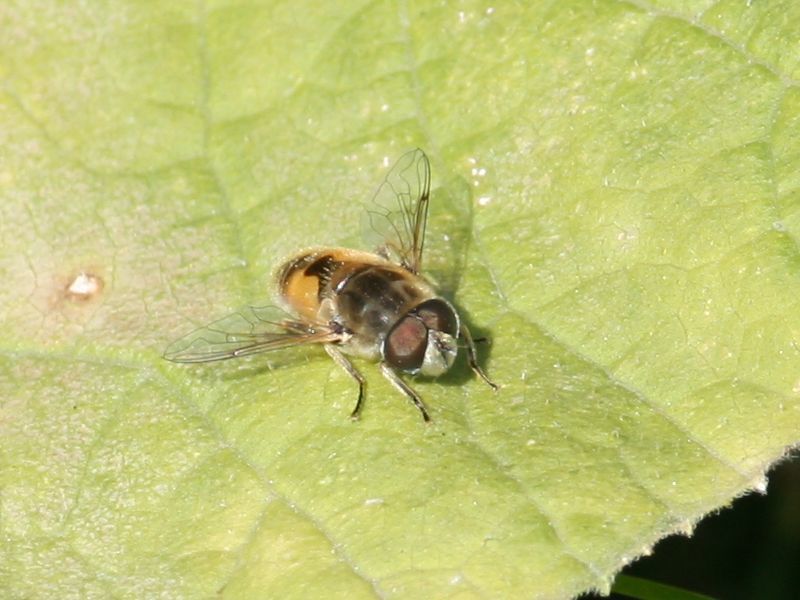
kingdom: Animalia
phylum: Arthropoda
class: Insecta
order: Diptera
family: Syrphidae
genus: Eristalis
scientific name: Eristalis arbustorum
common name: Hover fly
